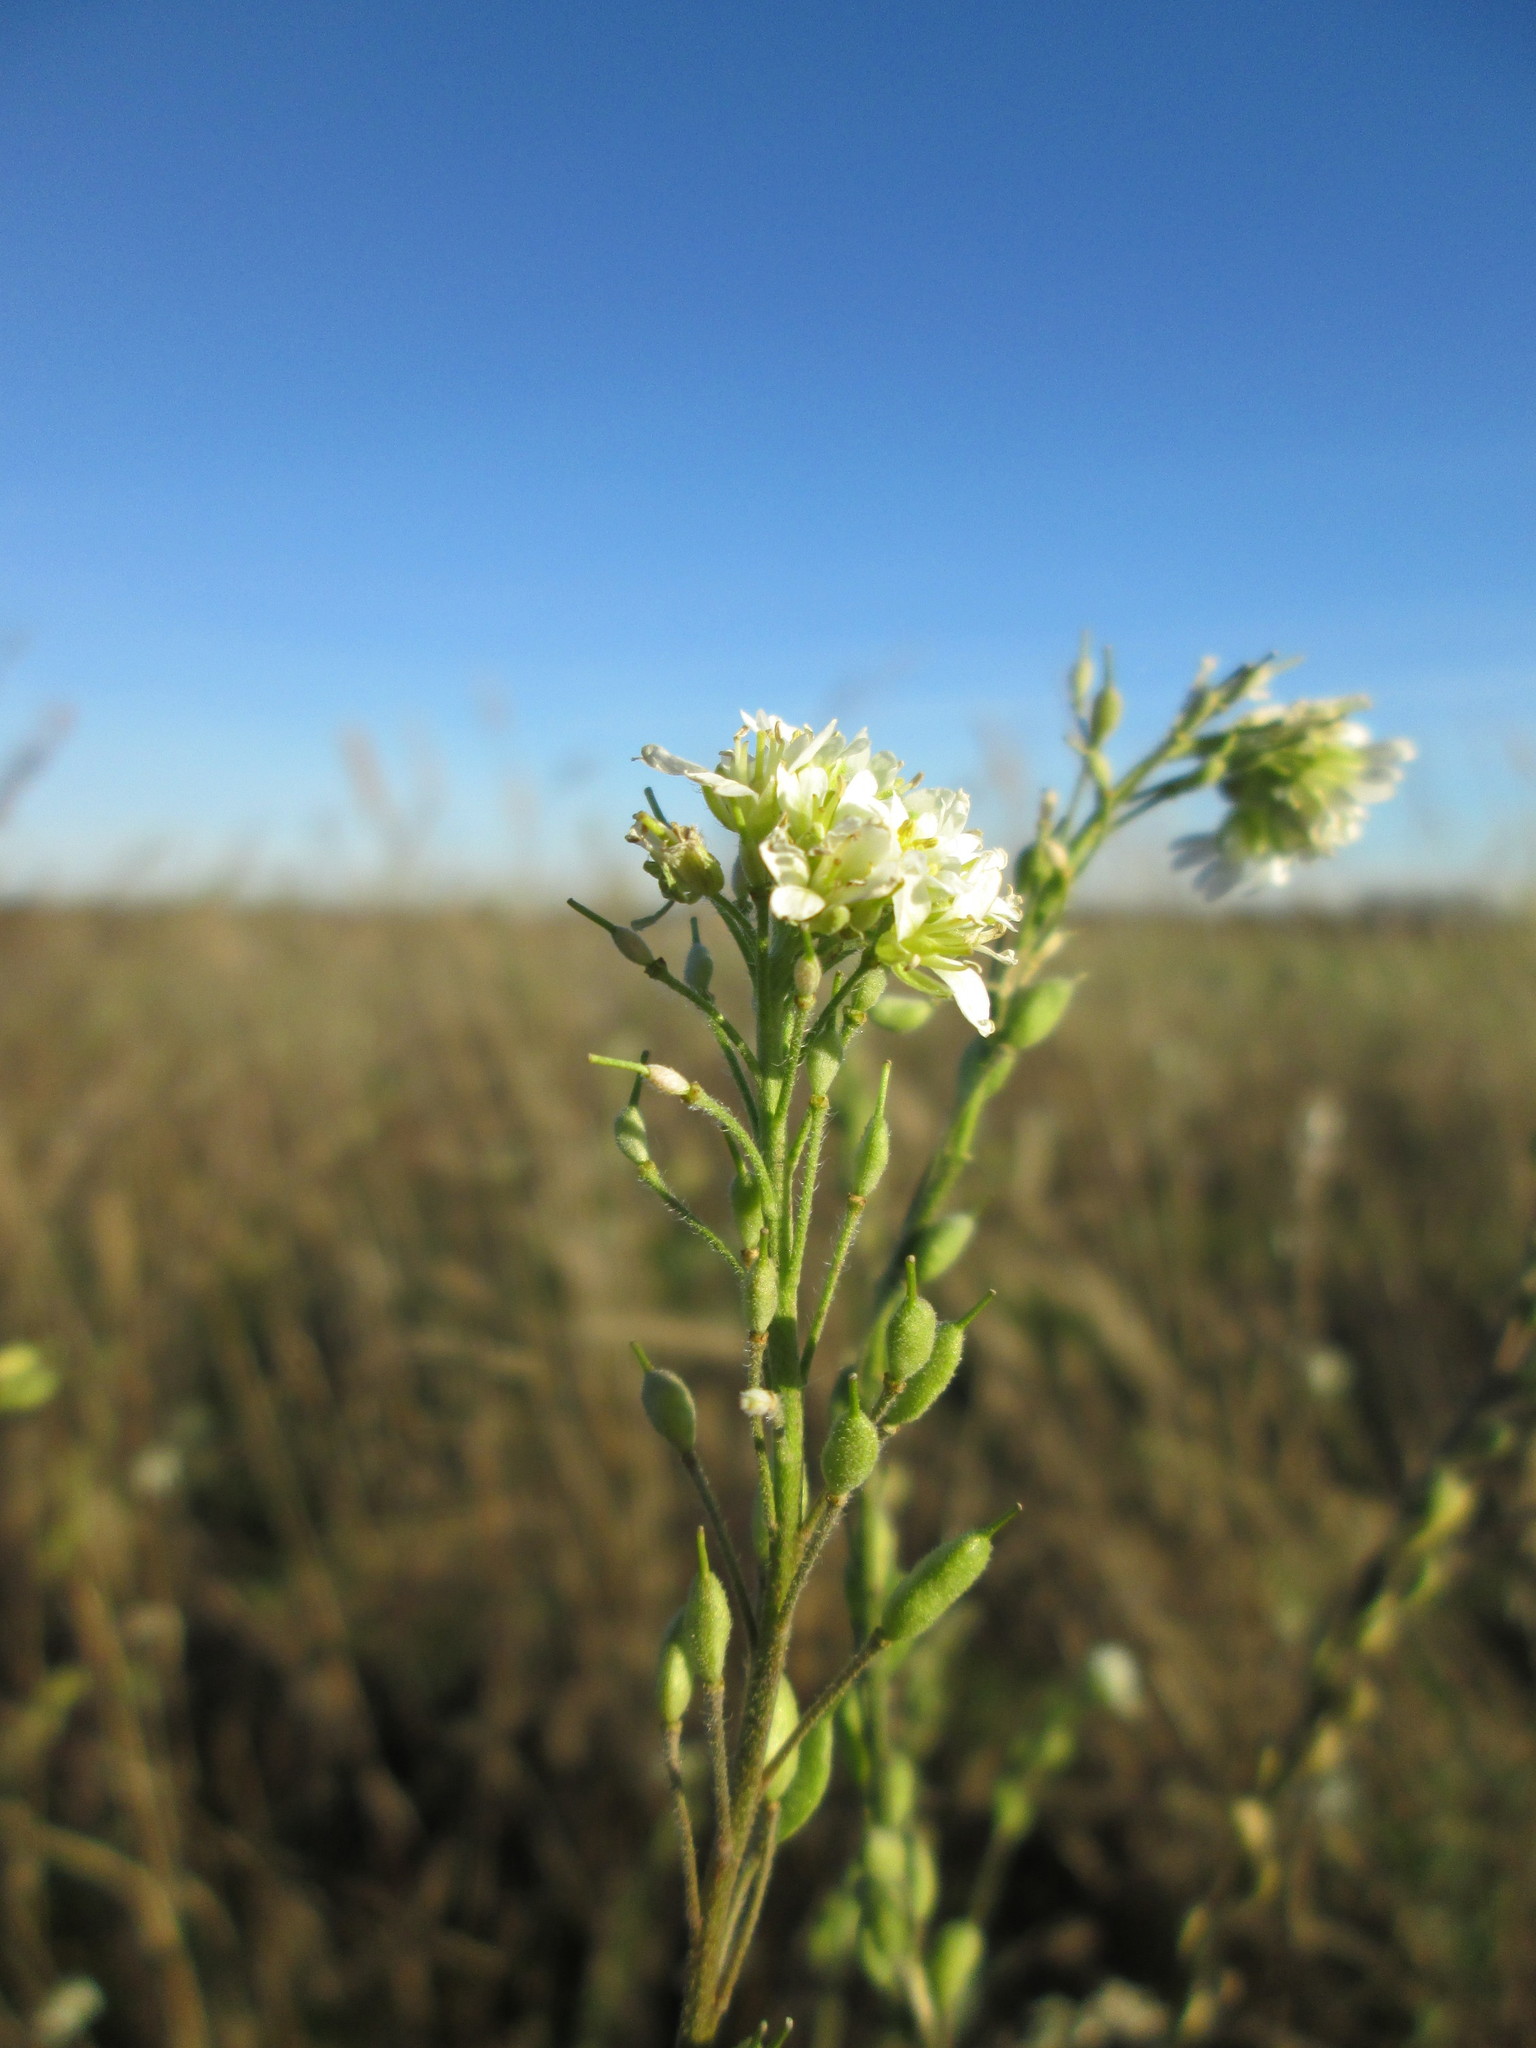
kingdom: Plantae
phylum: Tracheophyta
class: Magnoliopsida
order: Brassicales
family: Brassicaceae
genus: Berteroa
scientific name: Berteroa incana
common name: Hoary alison
